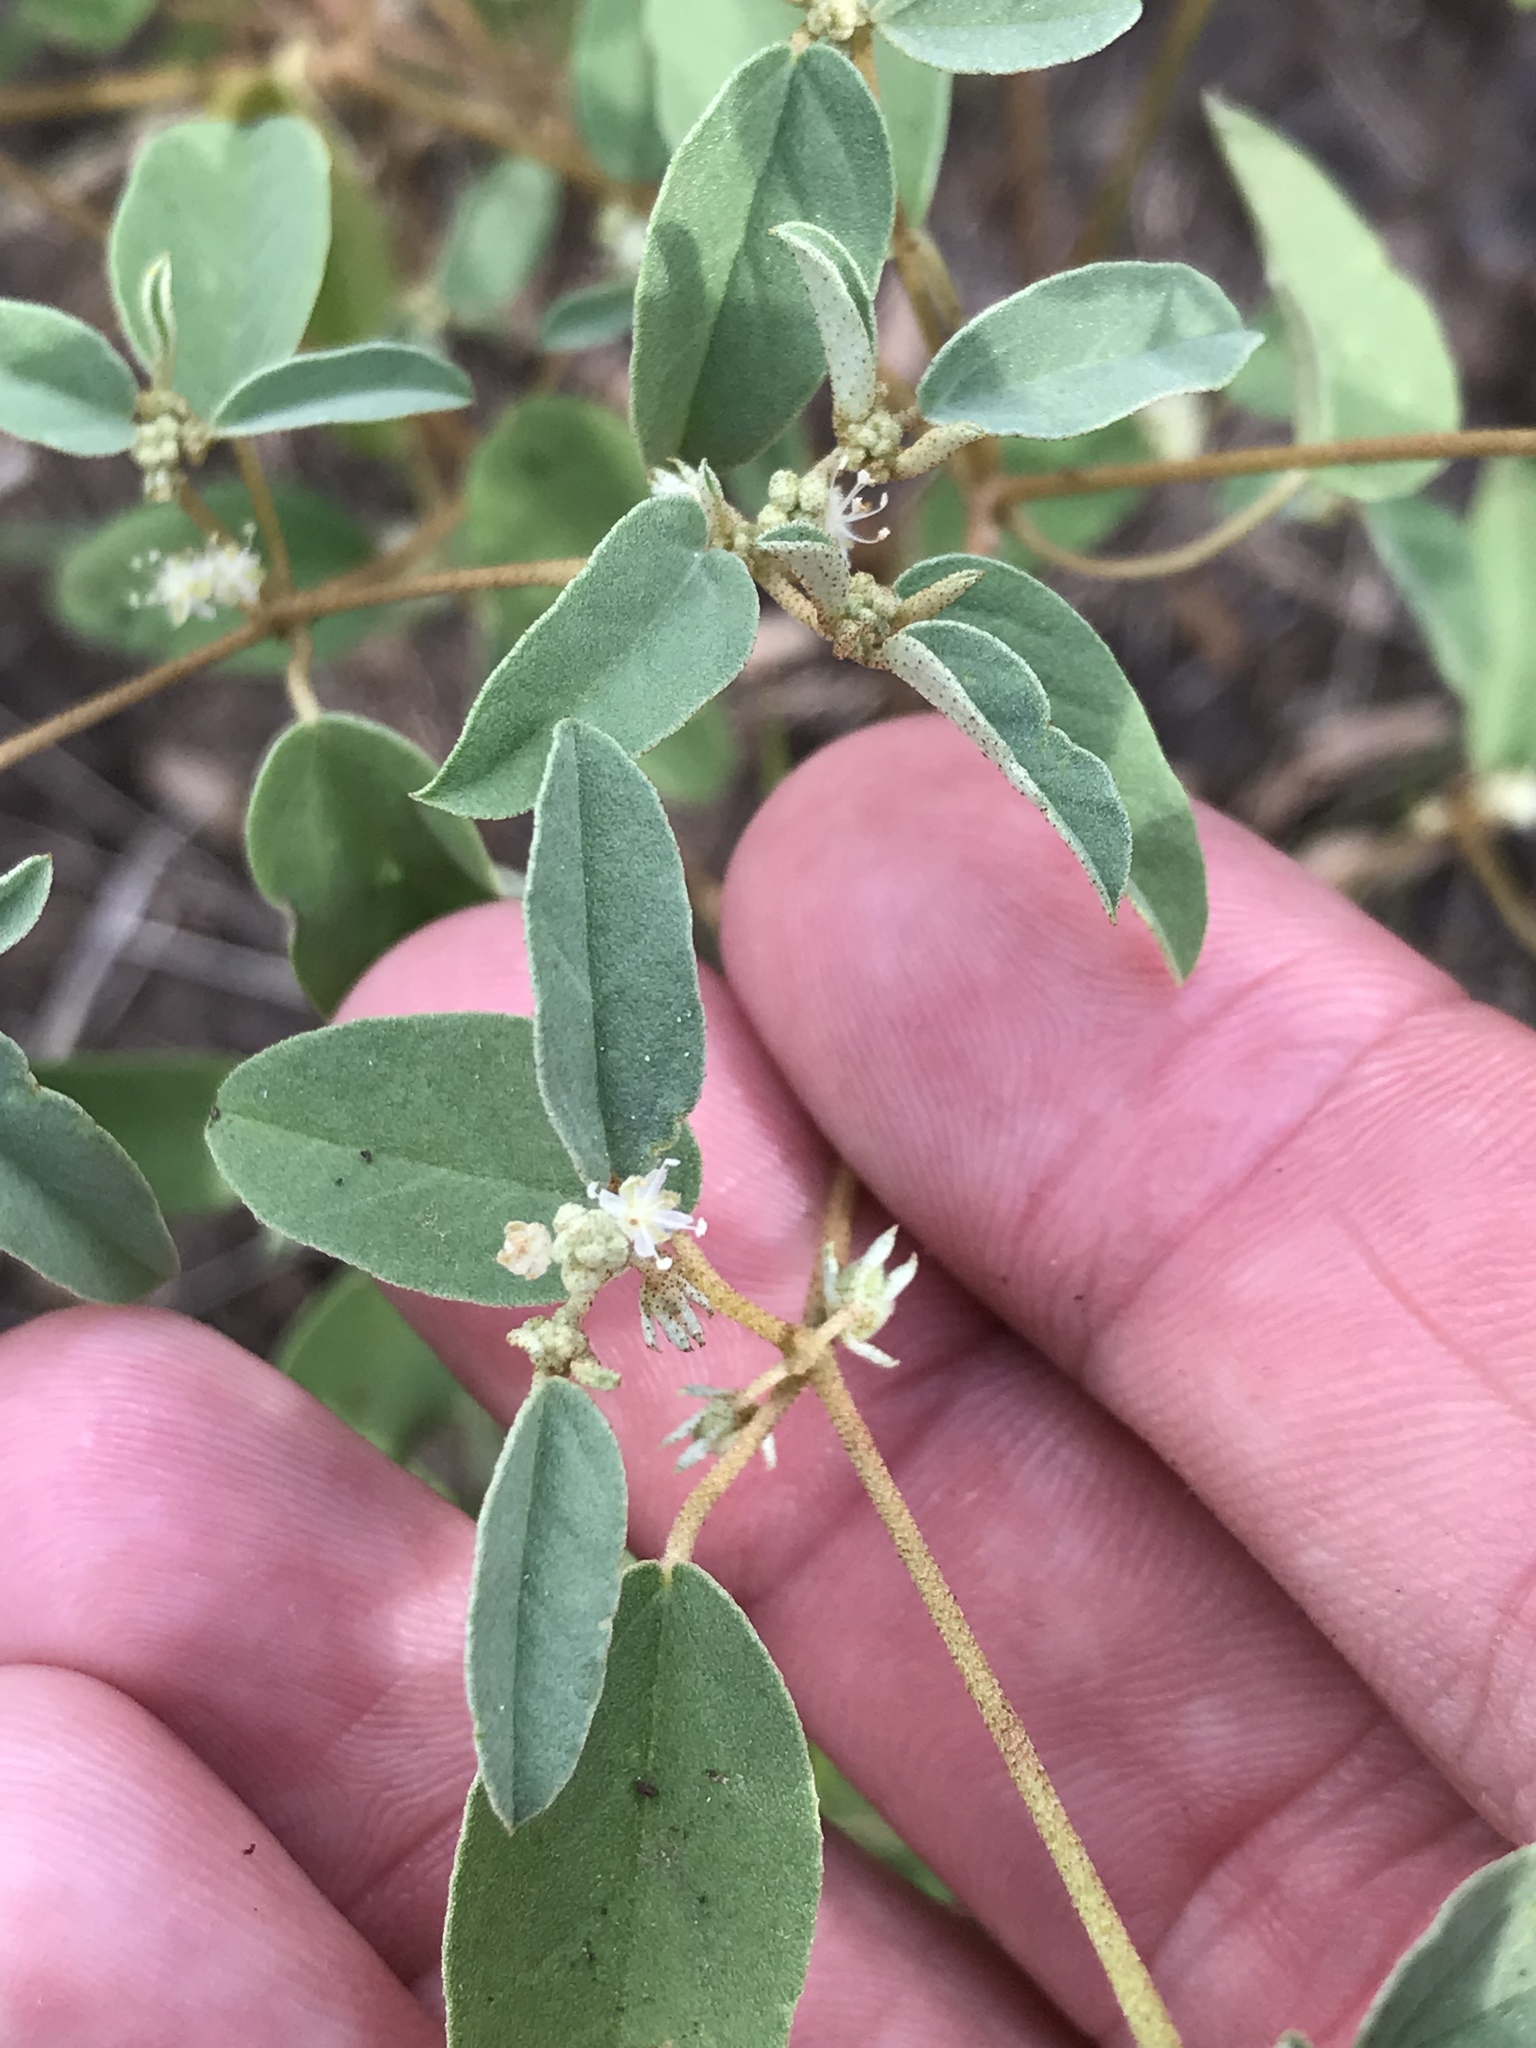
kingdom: Plantae
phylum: Tracheophyta
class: Magnoliopsida
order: Malpighiales
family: Euphorbiaceae
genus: Croton
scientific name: Croton monanthogynus
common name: One-seed croton
